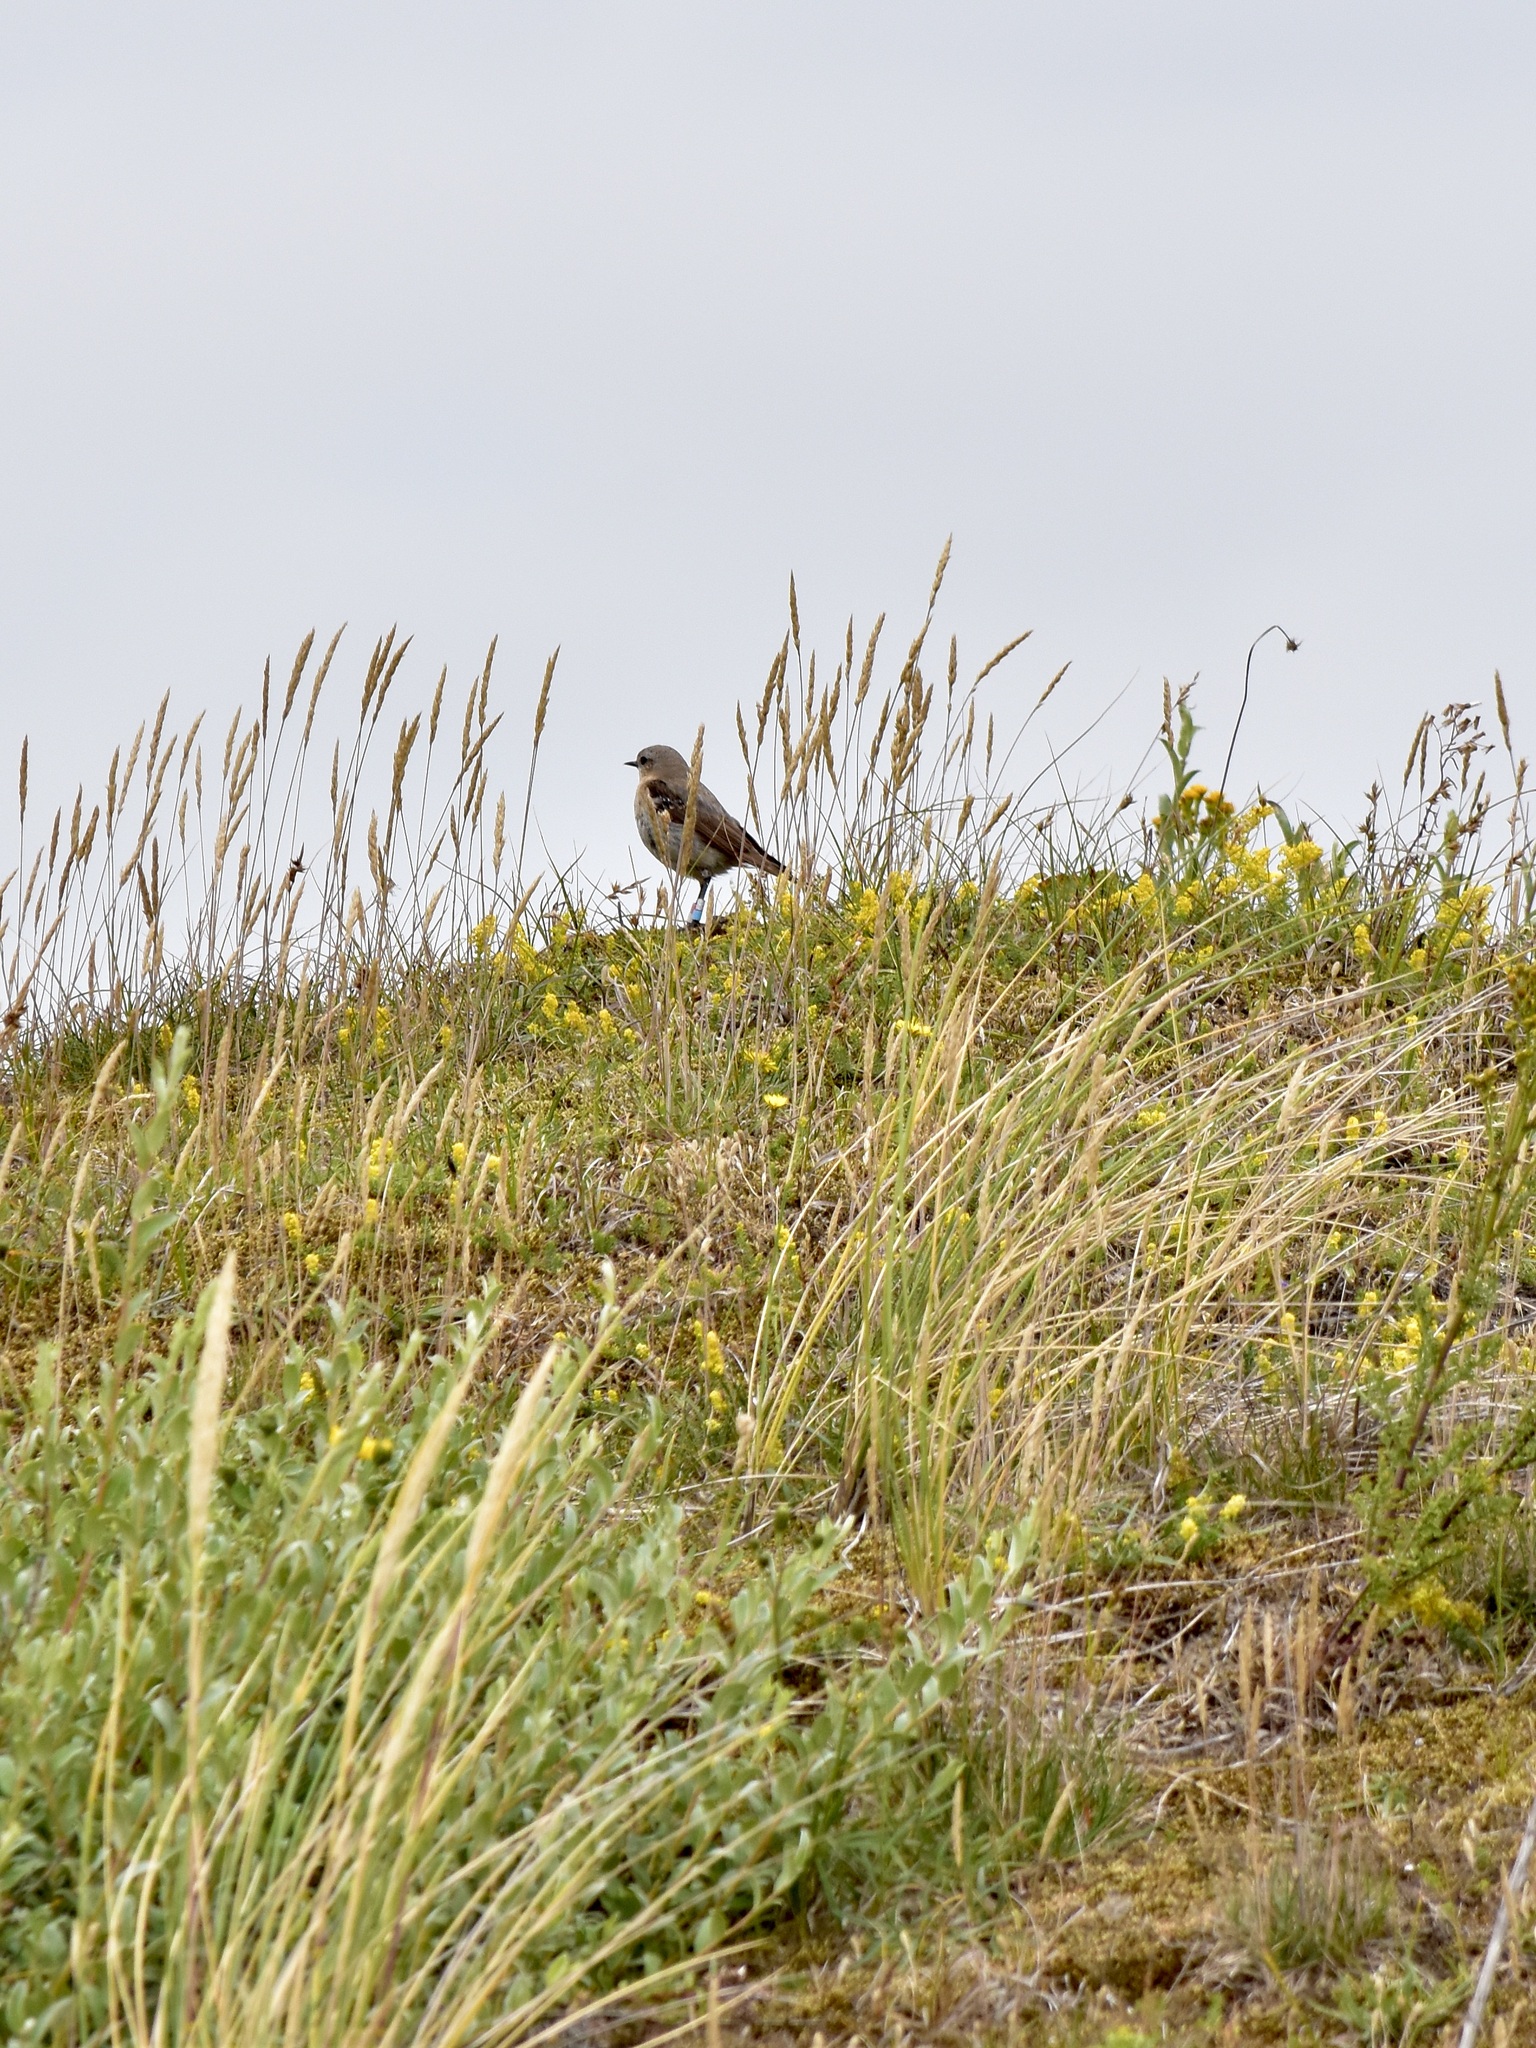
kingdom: Animalia
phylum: Chordata
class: Aves
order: Passeriformes
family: Muscicapidae
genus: Oenanthe
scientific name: Oenanthe oenanthe
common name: Northern wheatear
